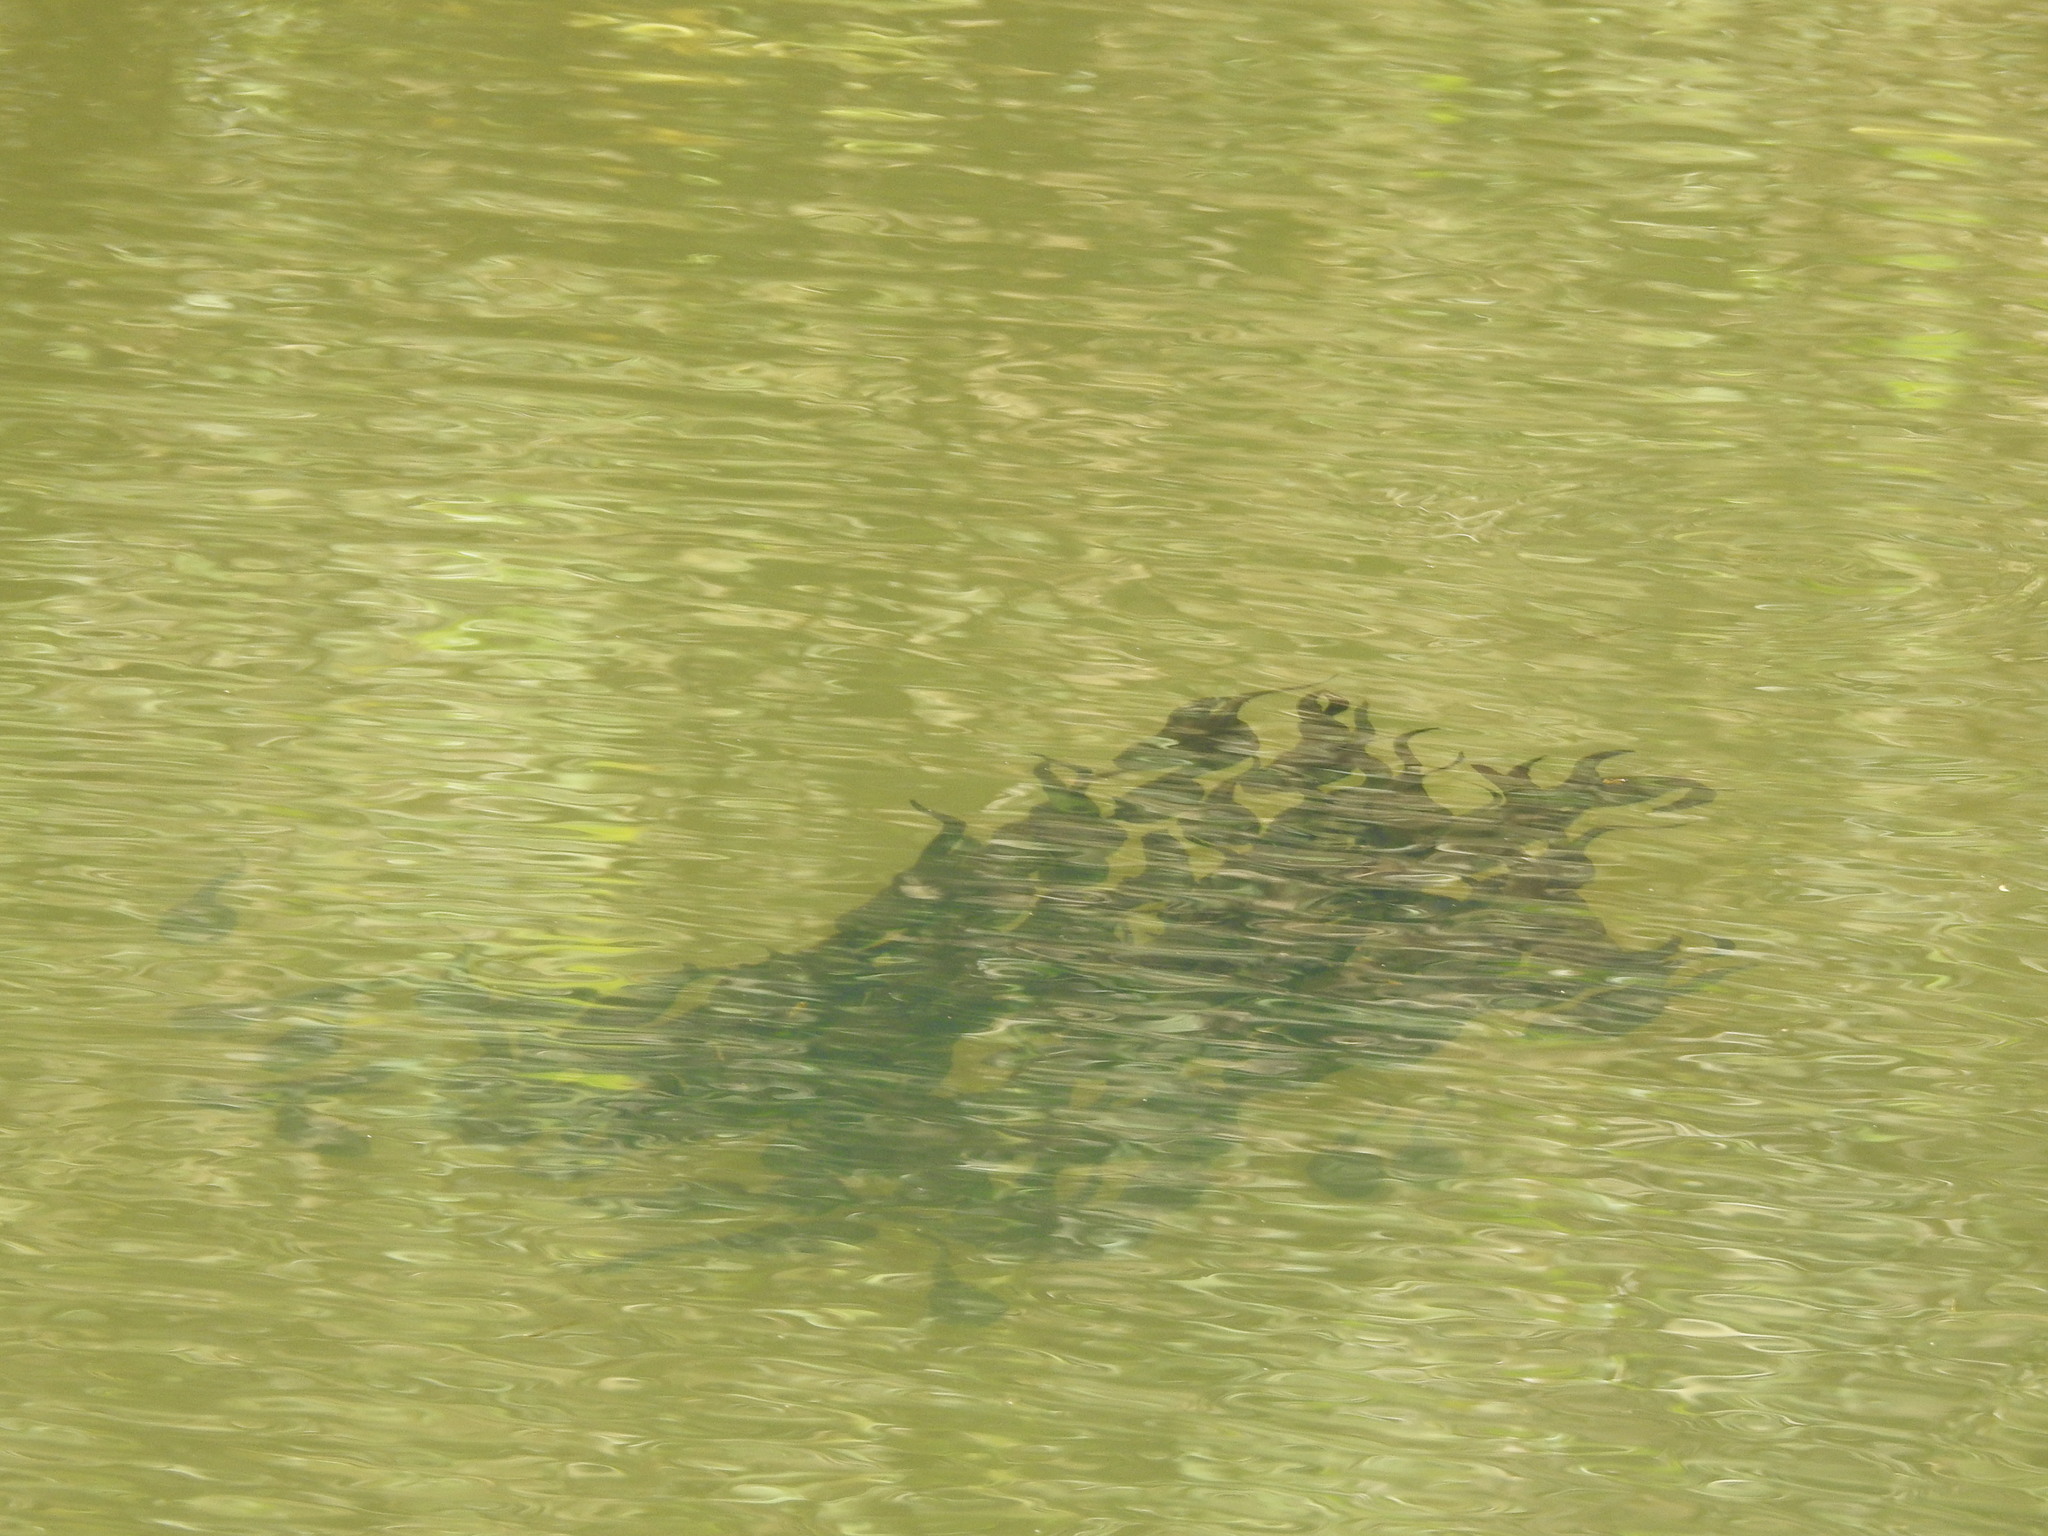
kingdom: Animalia
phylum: Chordata
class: Amphibia
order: Anura
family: Ranidae
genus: Clinotarsus
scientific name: Clinotarsus curtipes
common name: Bicoloured frog
